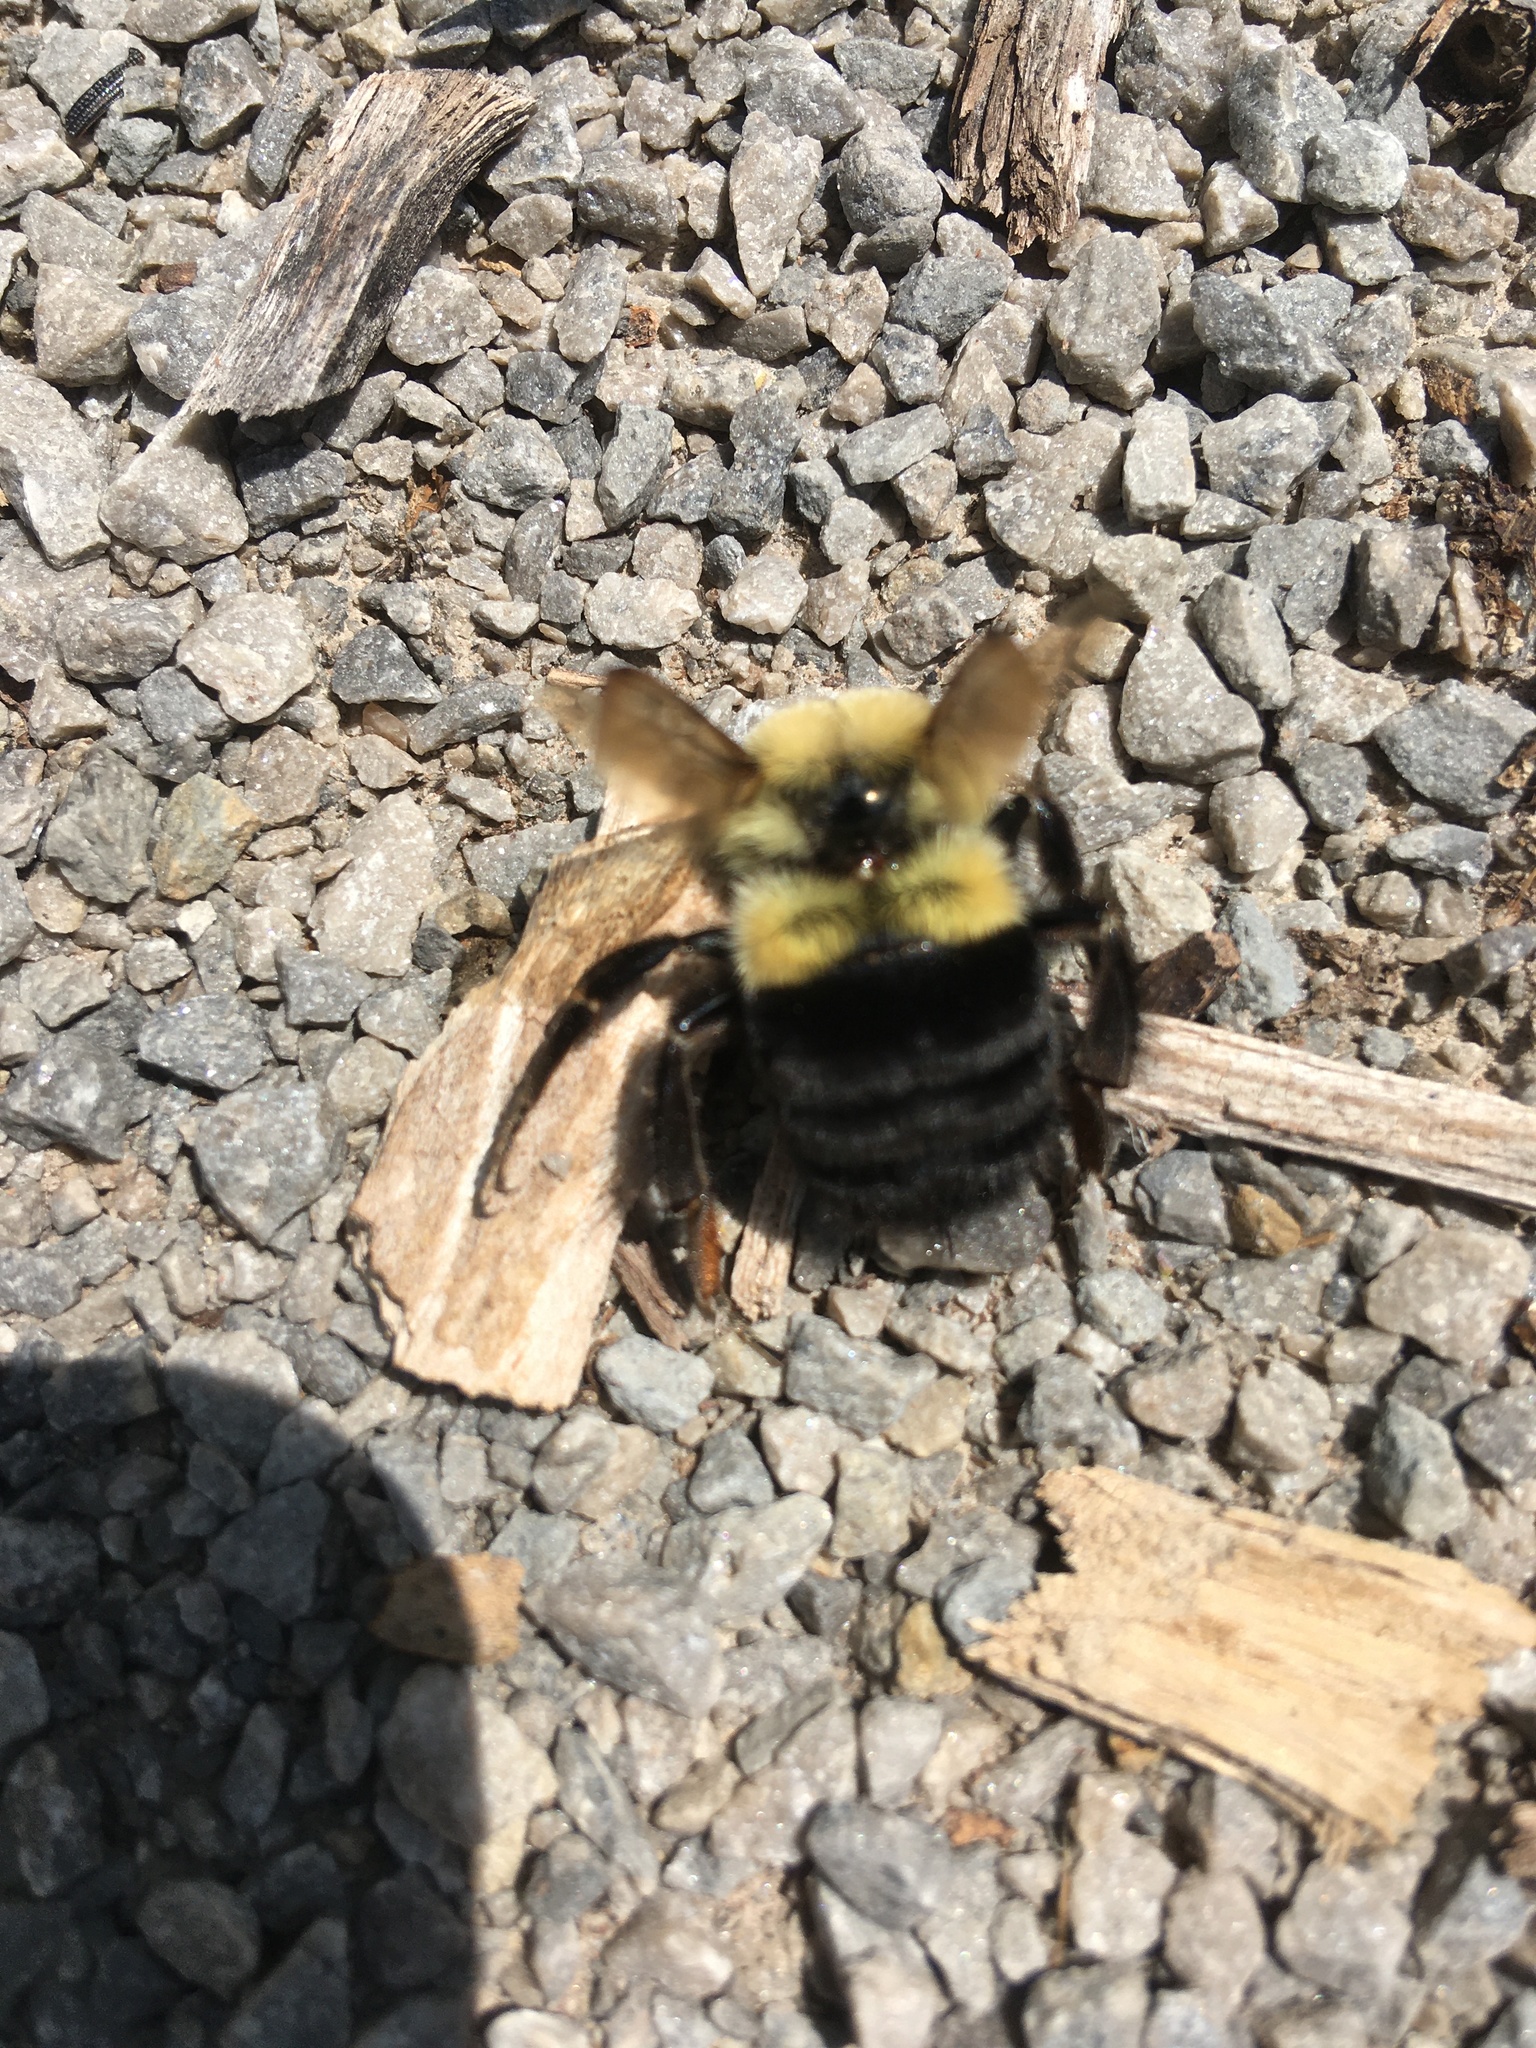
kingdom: Animalia
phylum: Arthropoda
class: Insecta
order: Hymenoptera
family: Apidae
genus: Bombus
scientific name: Bombus impatiens
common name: Common eastern bumble bee
